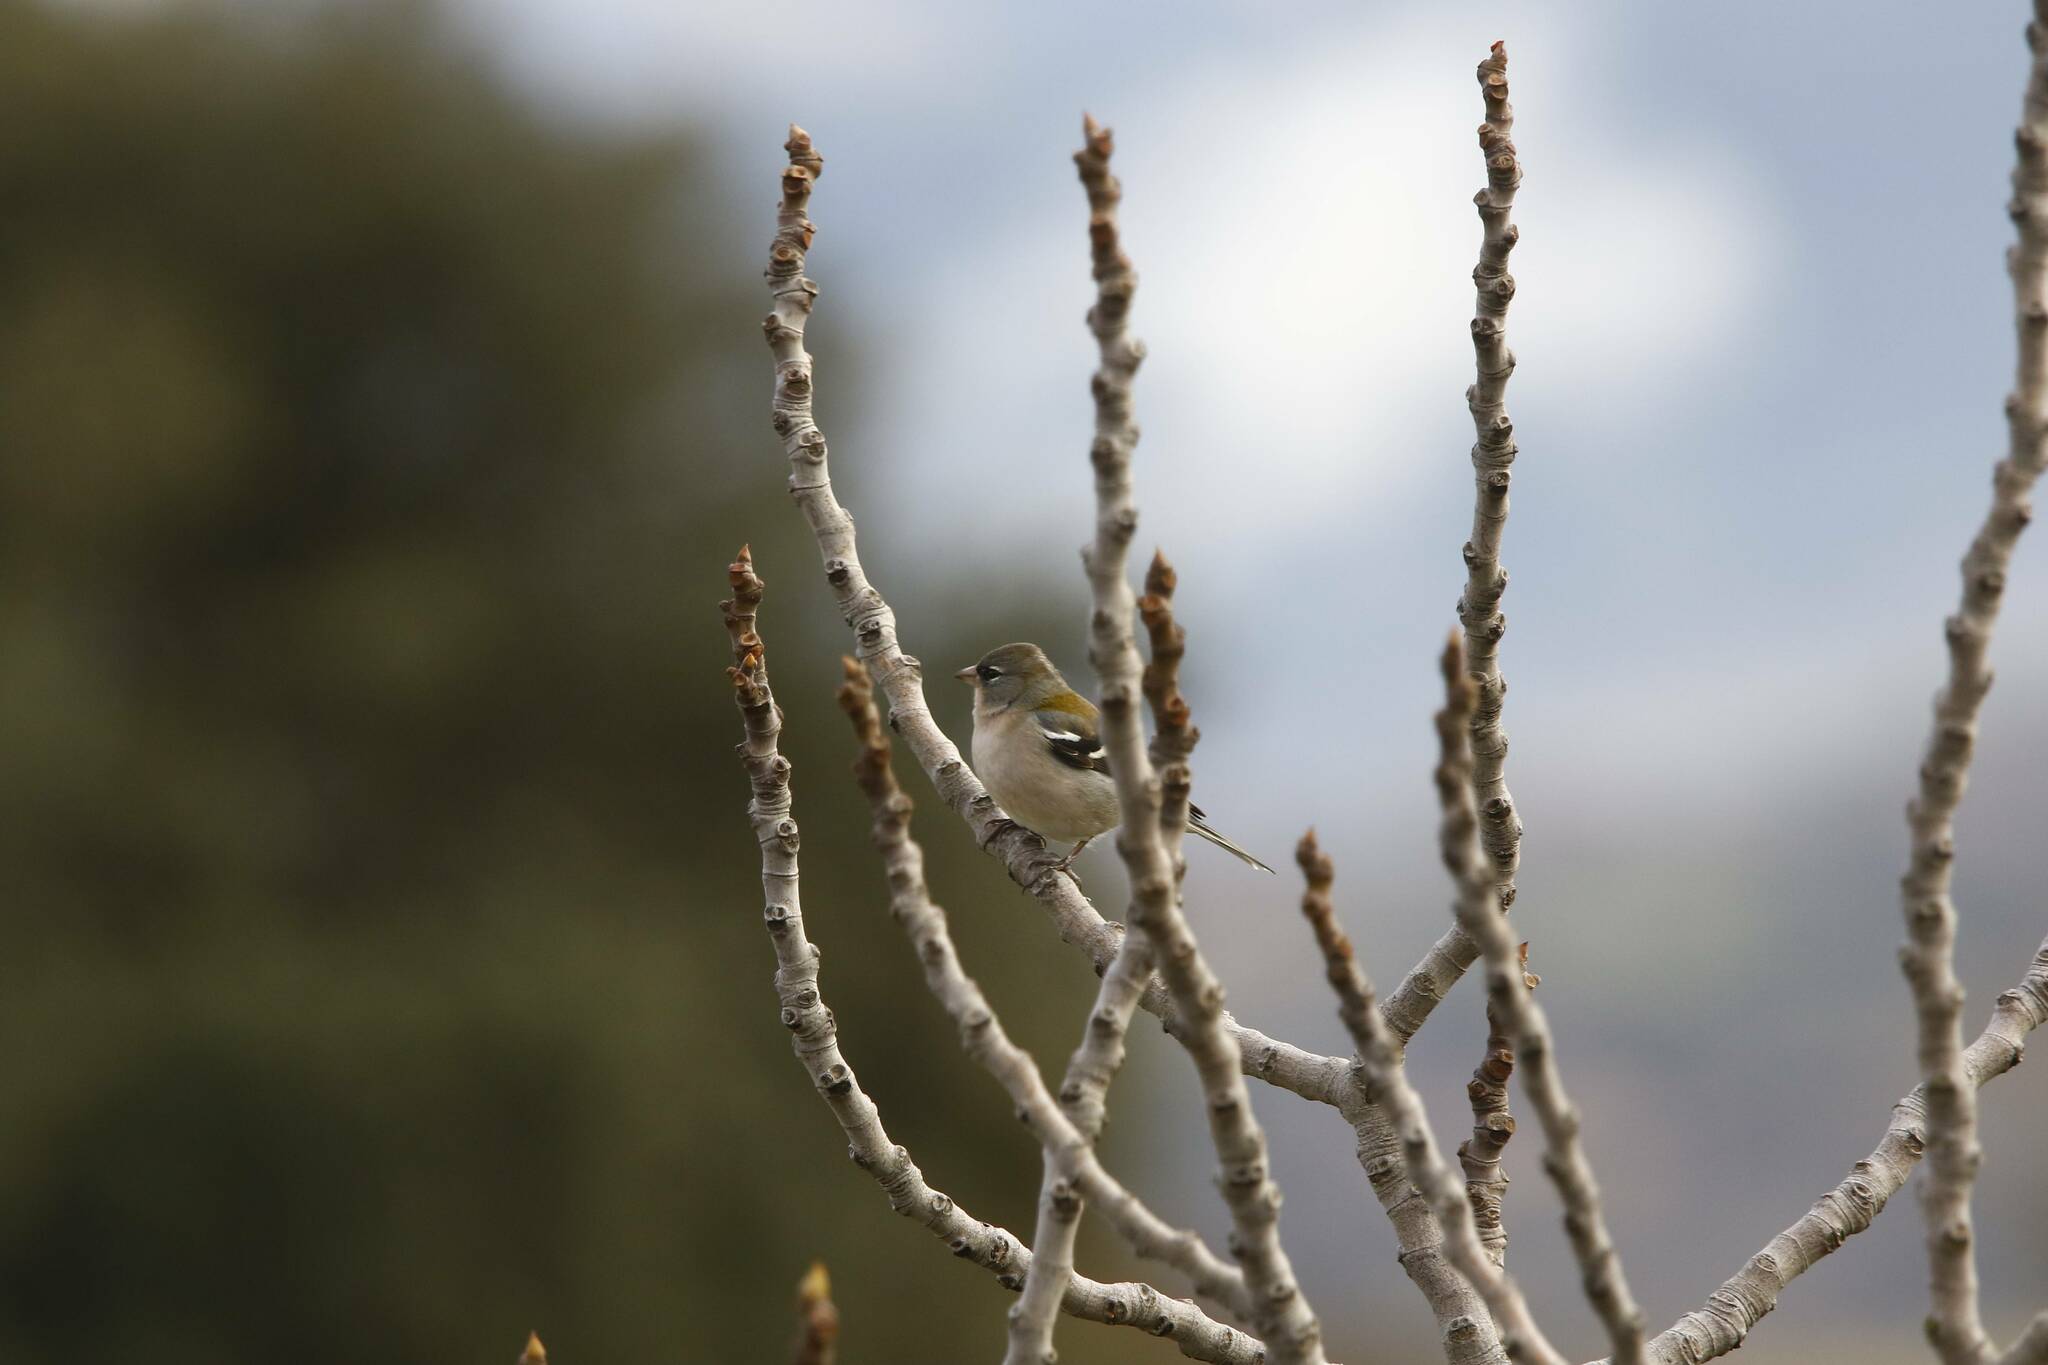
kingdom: Animalia
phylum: Chordata
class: Aves
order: Passeriformes
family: Fringillidae
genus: Fringilla
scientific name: Fringilla spodiogenys
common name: African chaffinch
